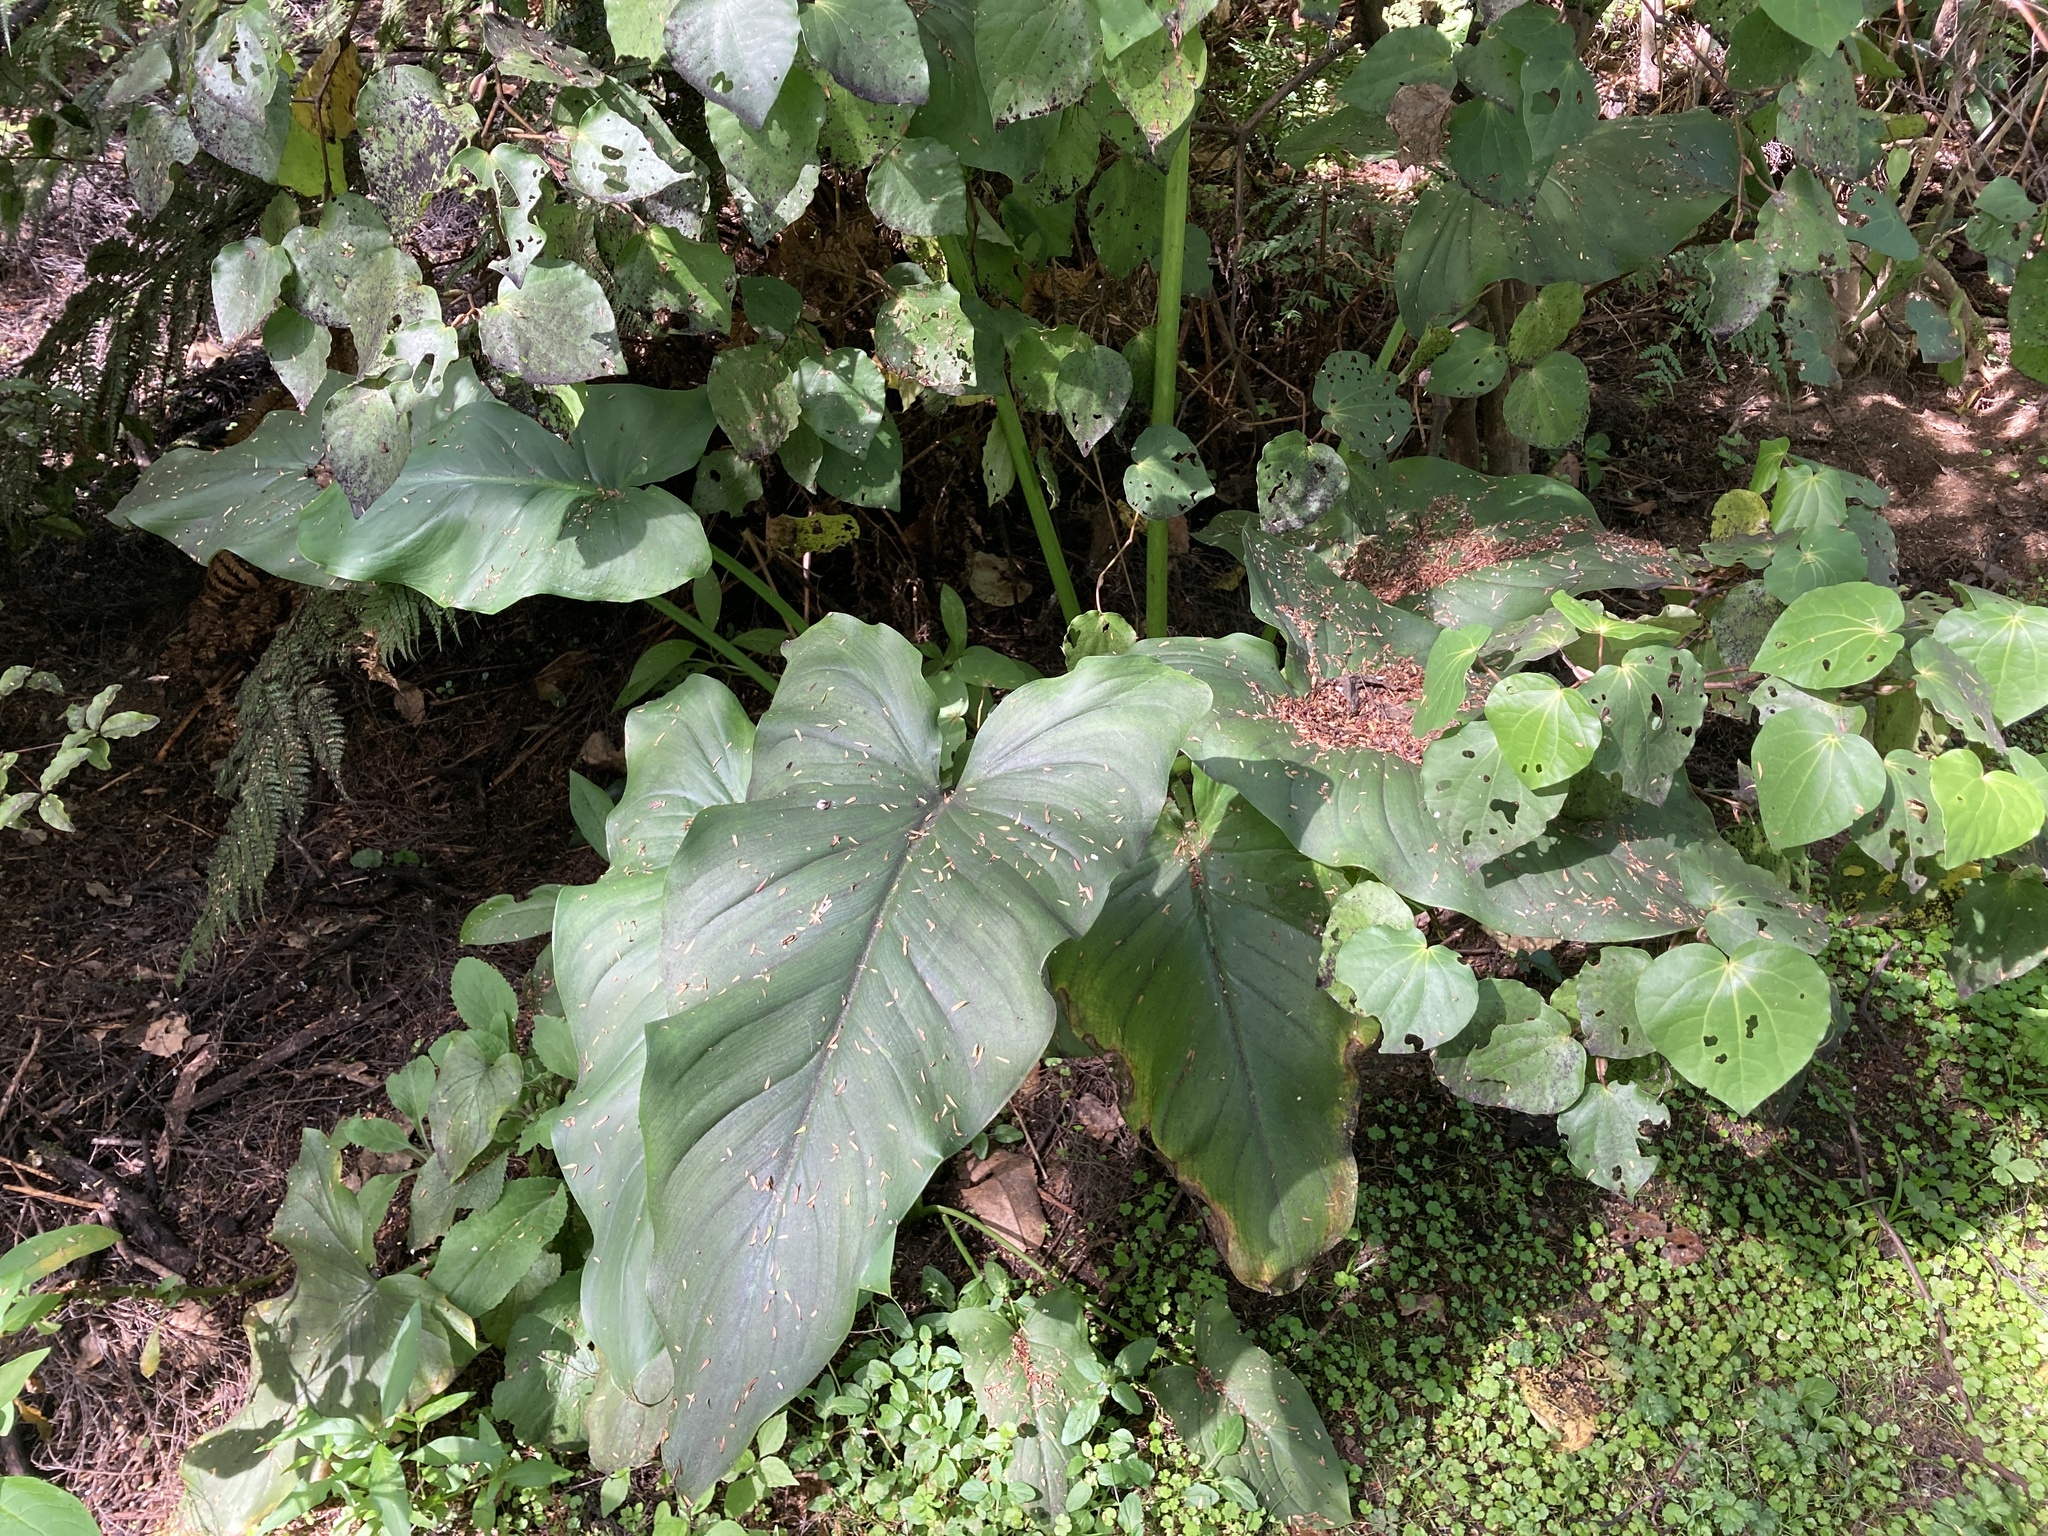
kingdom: Plantae
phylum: Tracheophyta
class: Liliopsida
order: Alismatales
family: Araceae
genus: Zantedeschia
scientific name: Zantedeschia aethiopica
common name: Altar-lily
